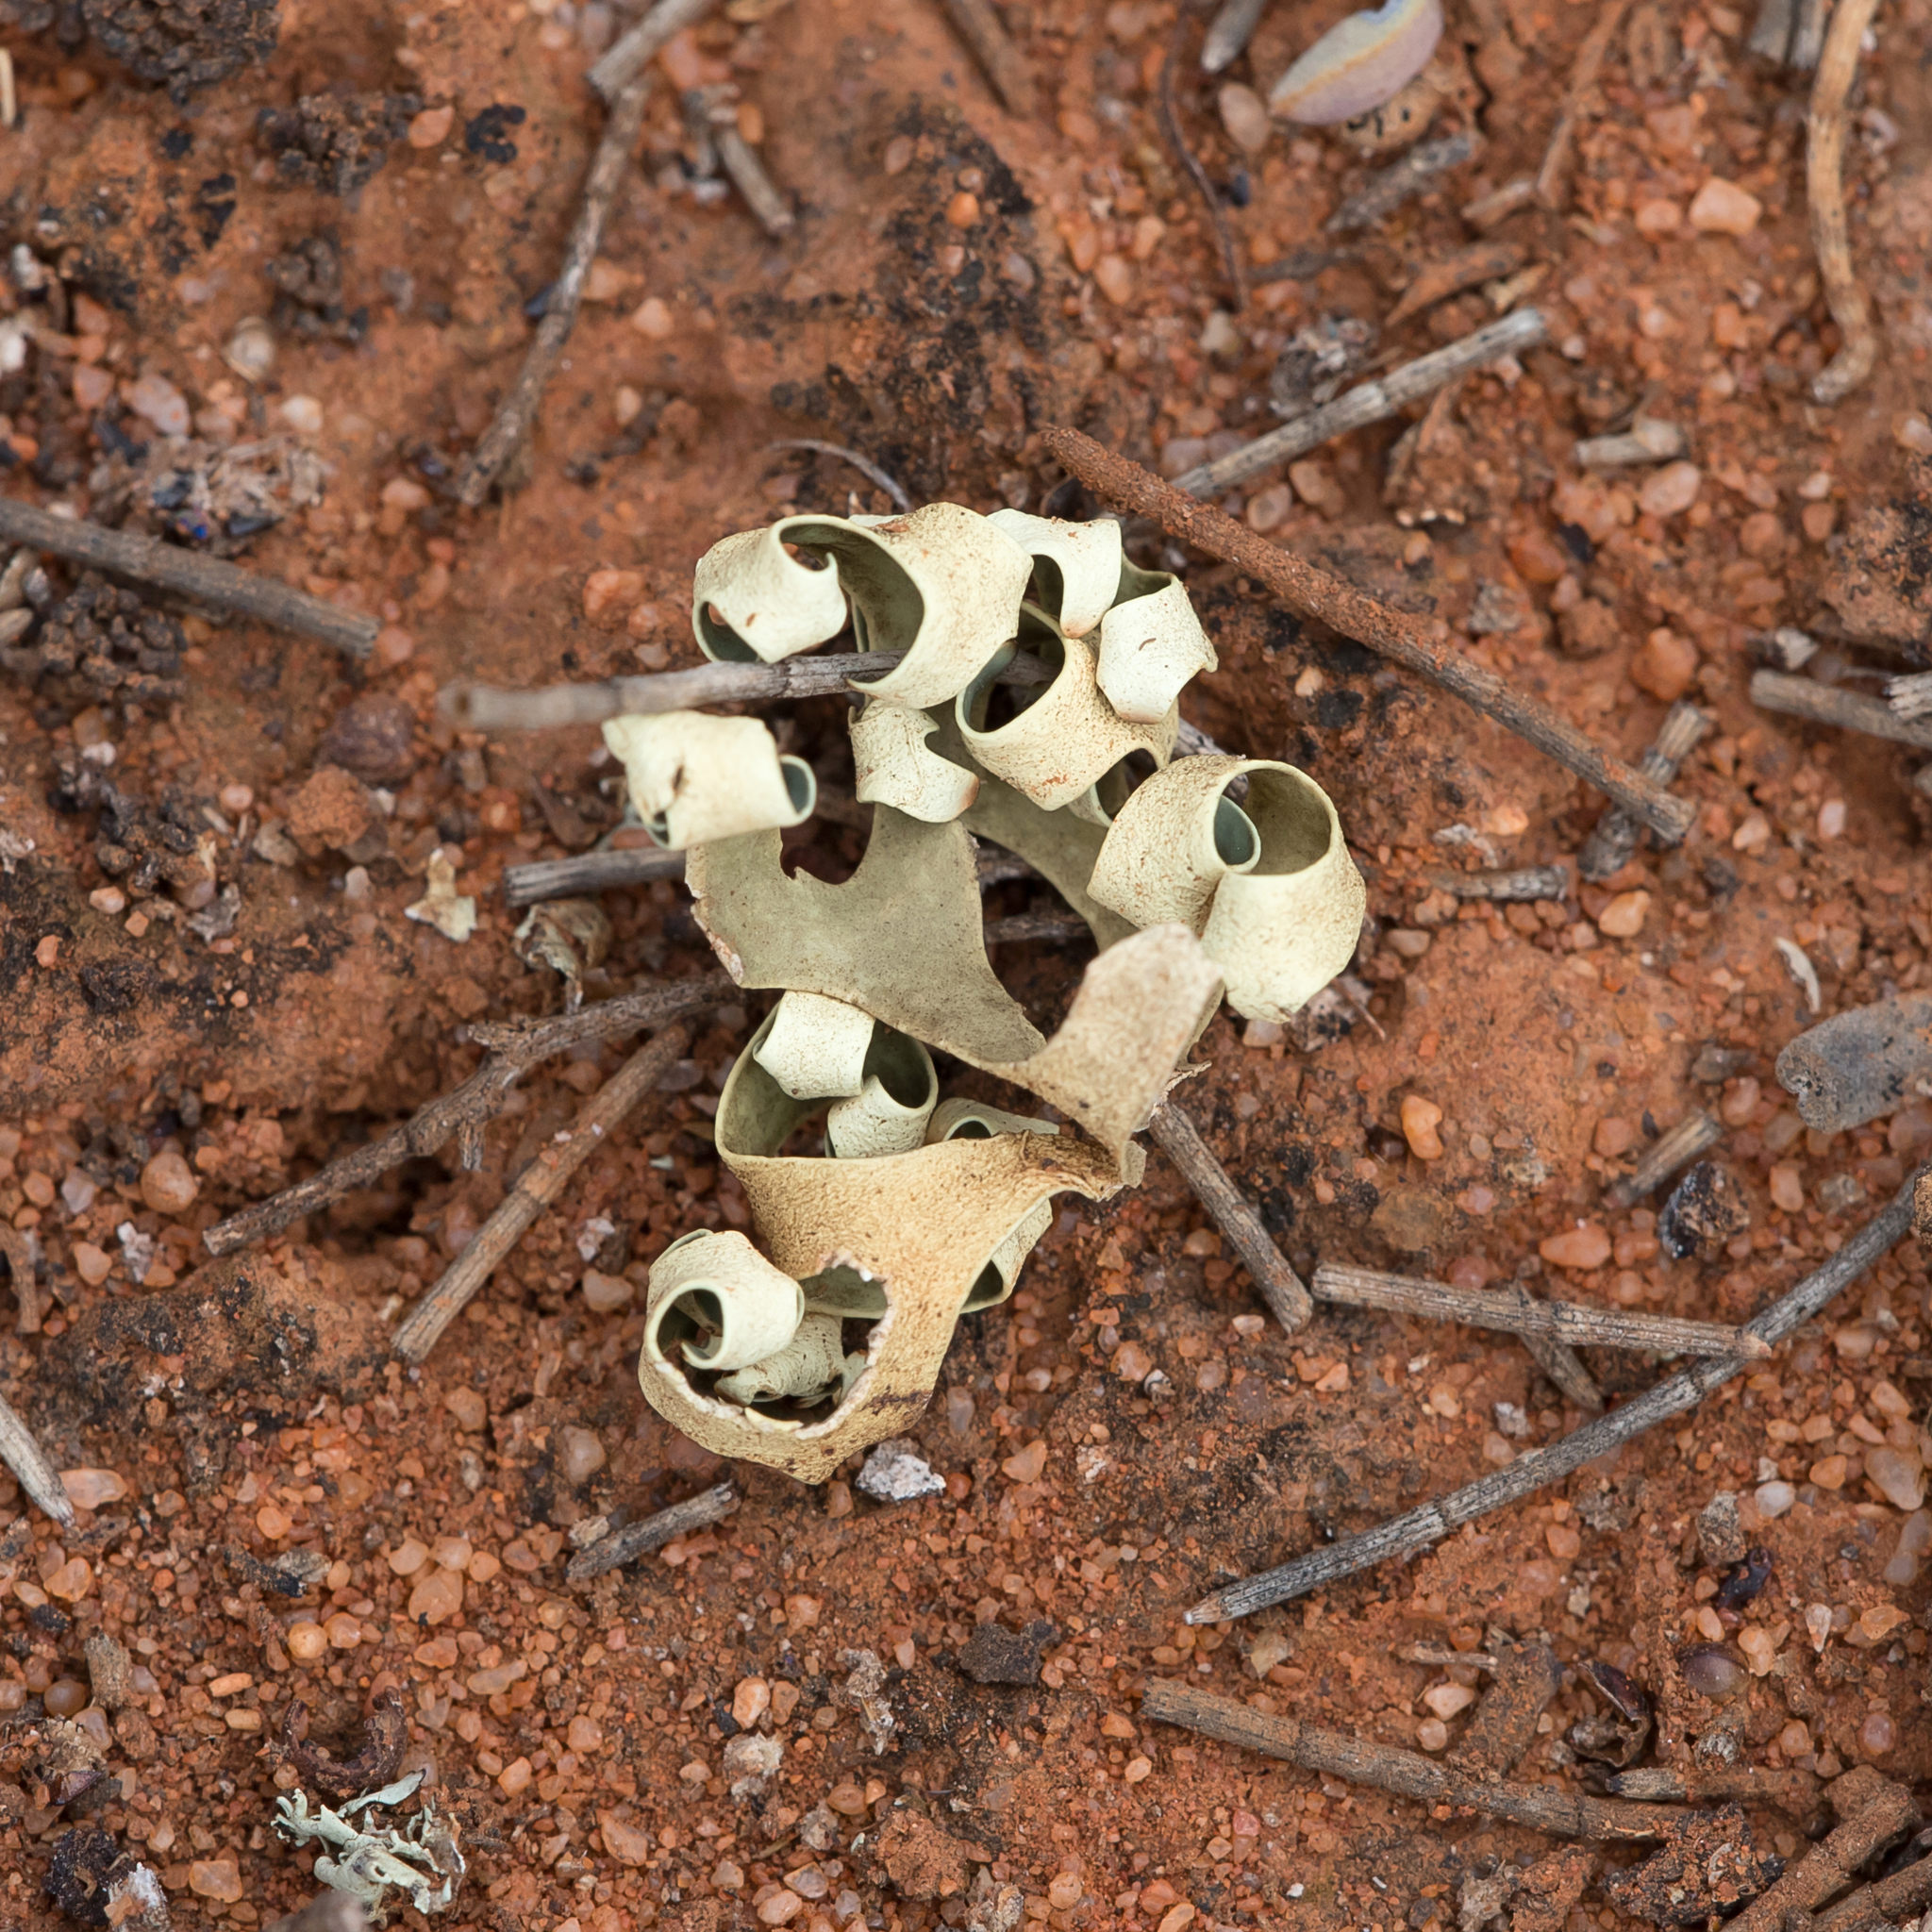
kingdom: Fungi
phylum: Ascomycota
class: Lecanoromycetes
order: Lecanorales
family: Parmeliaceae
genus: Xanthoparmelia
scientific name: Xanthoparmelia semiviridis
